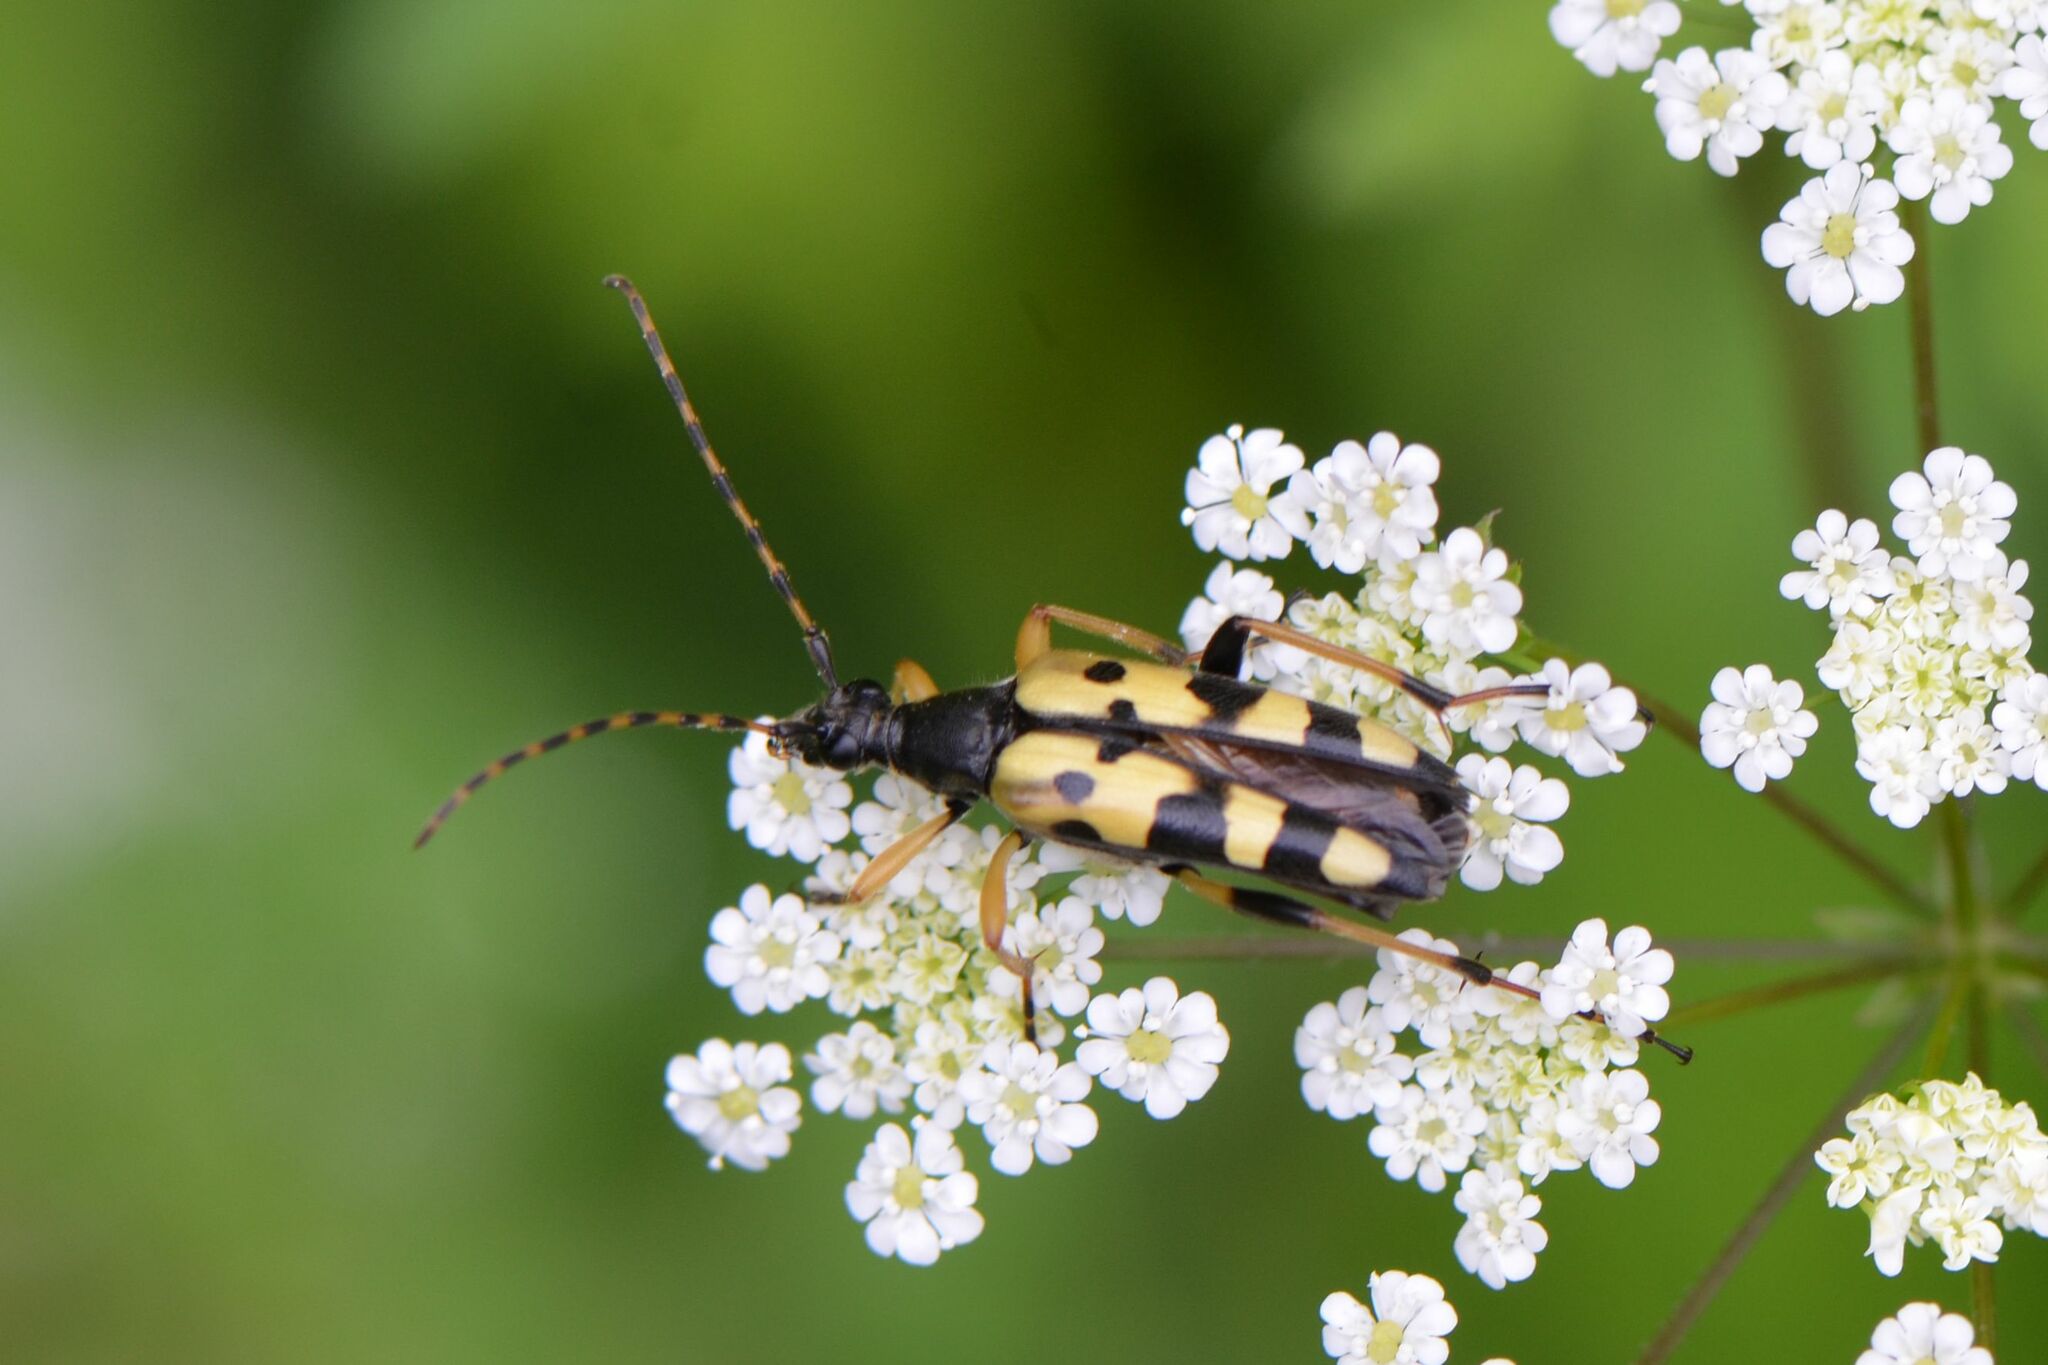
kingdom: Animalia
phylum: Arthropoda
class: Insecta
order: Coleoptera
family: Cerambycidae
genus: Rutpela
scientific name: Rutpela maculata
